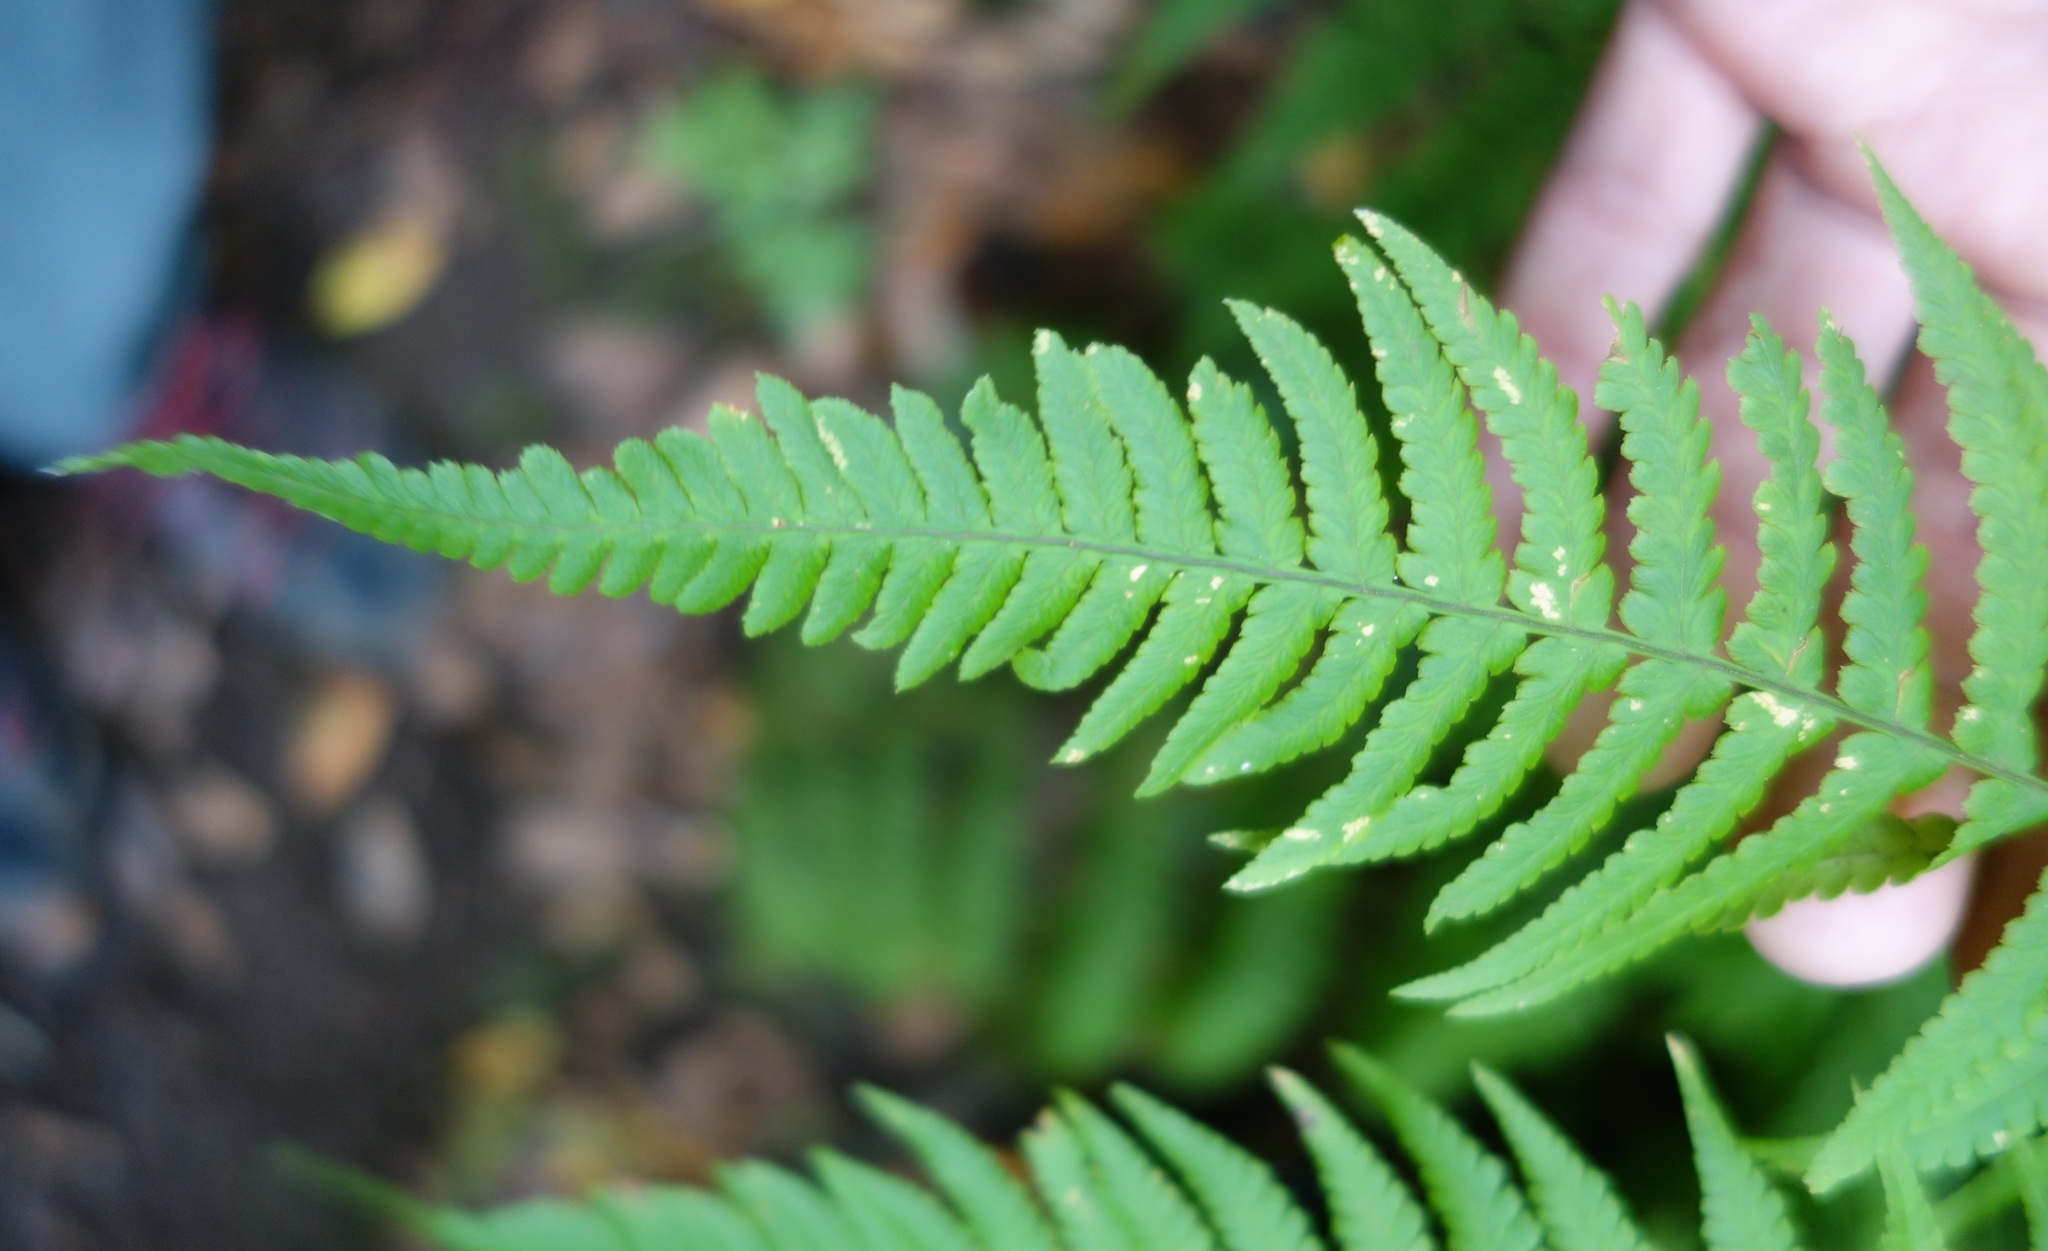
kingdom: Plantae
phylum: Tracheophyta
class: Polypodiopsida
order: Polypodiales
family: Dryopteridaceae
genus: Dryopteris
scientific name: Dryopteris oligodonta
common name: Canarian male-fern
